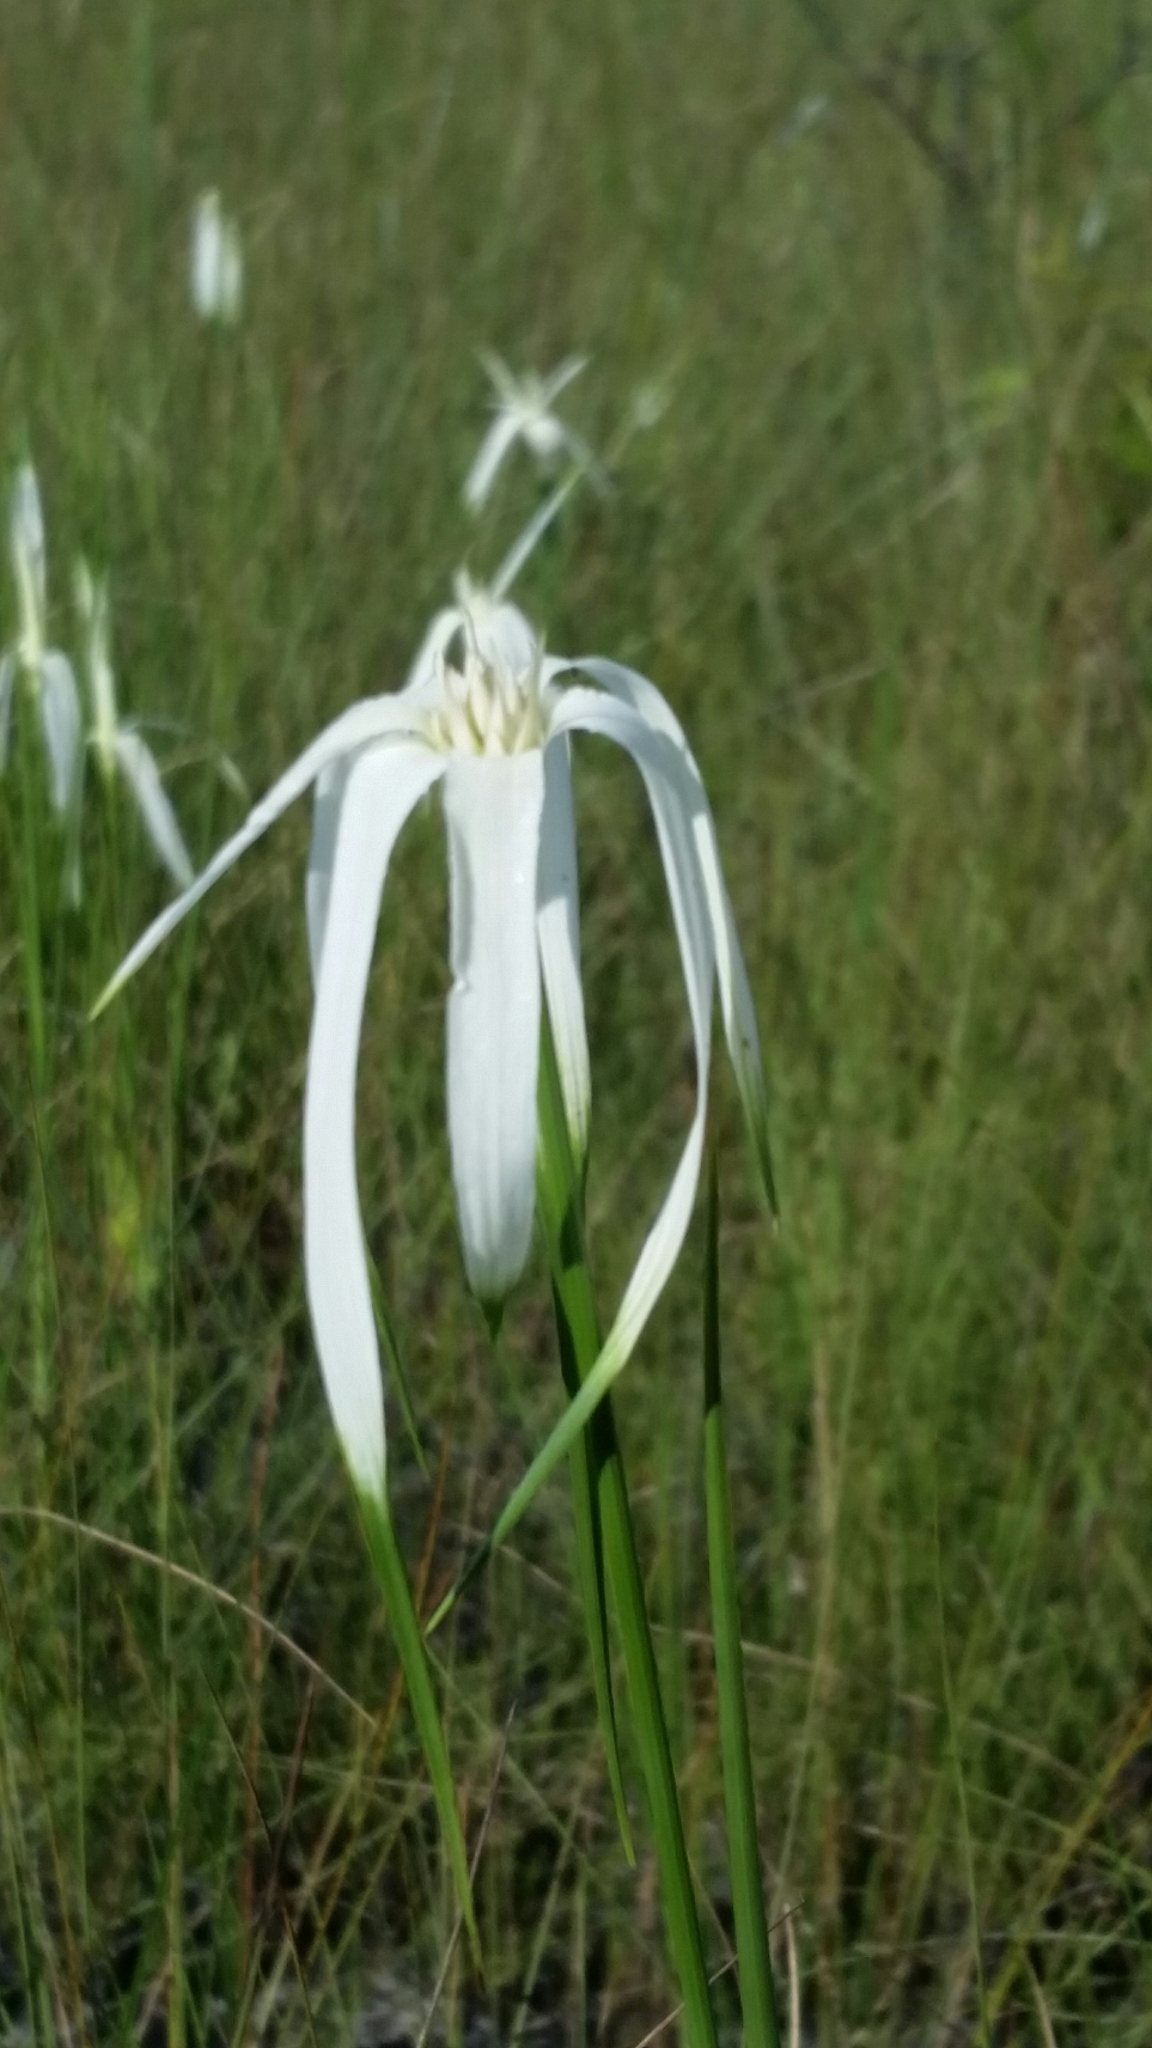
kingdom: Plantae
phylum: Tracheophyta
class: Liliopsida
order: Poales
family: Cyperaceae
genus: Rhynchospora
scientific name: Rhynchospora latifolia
